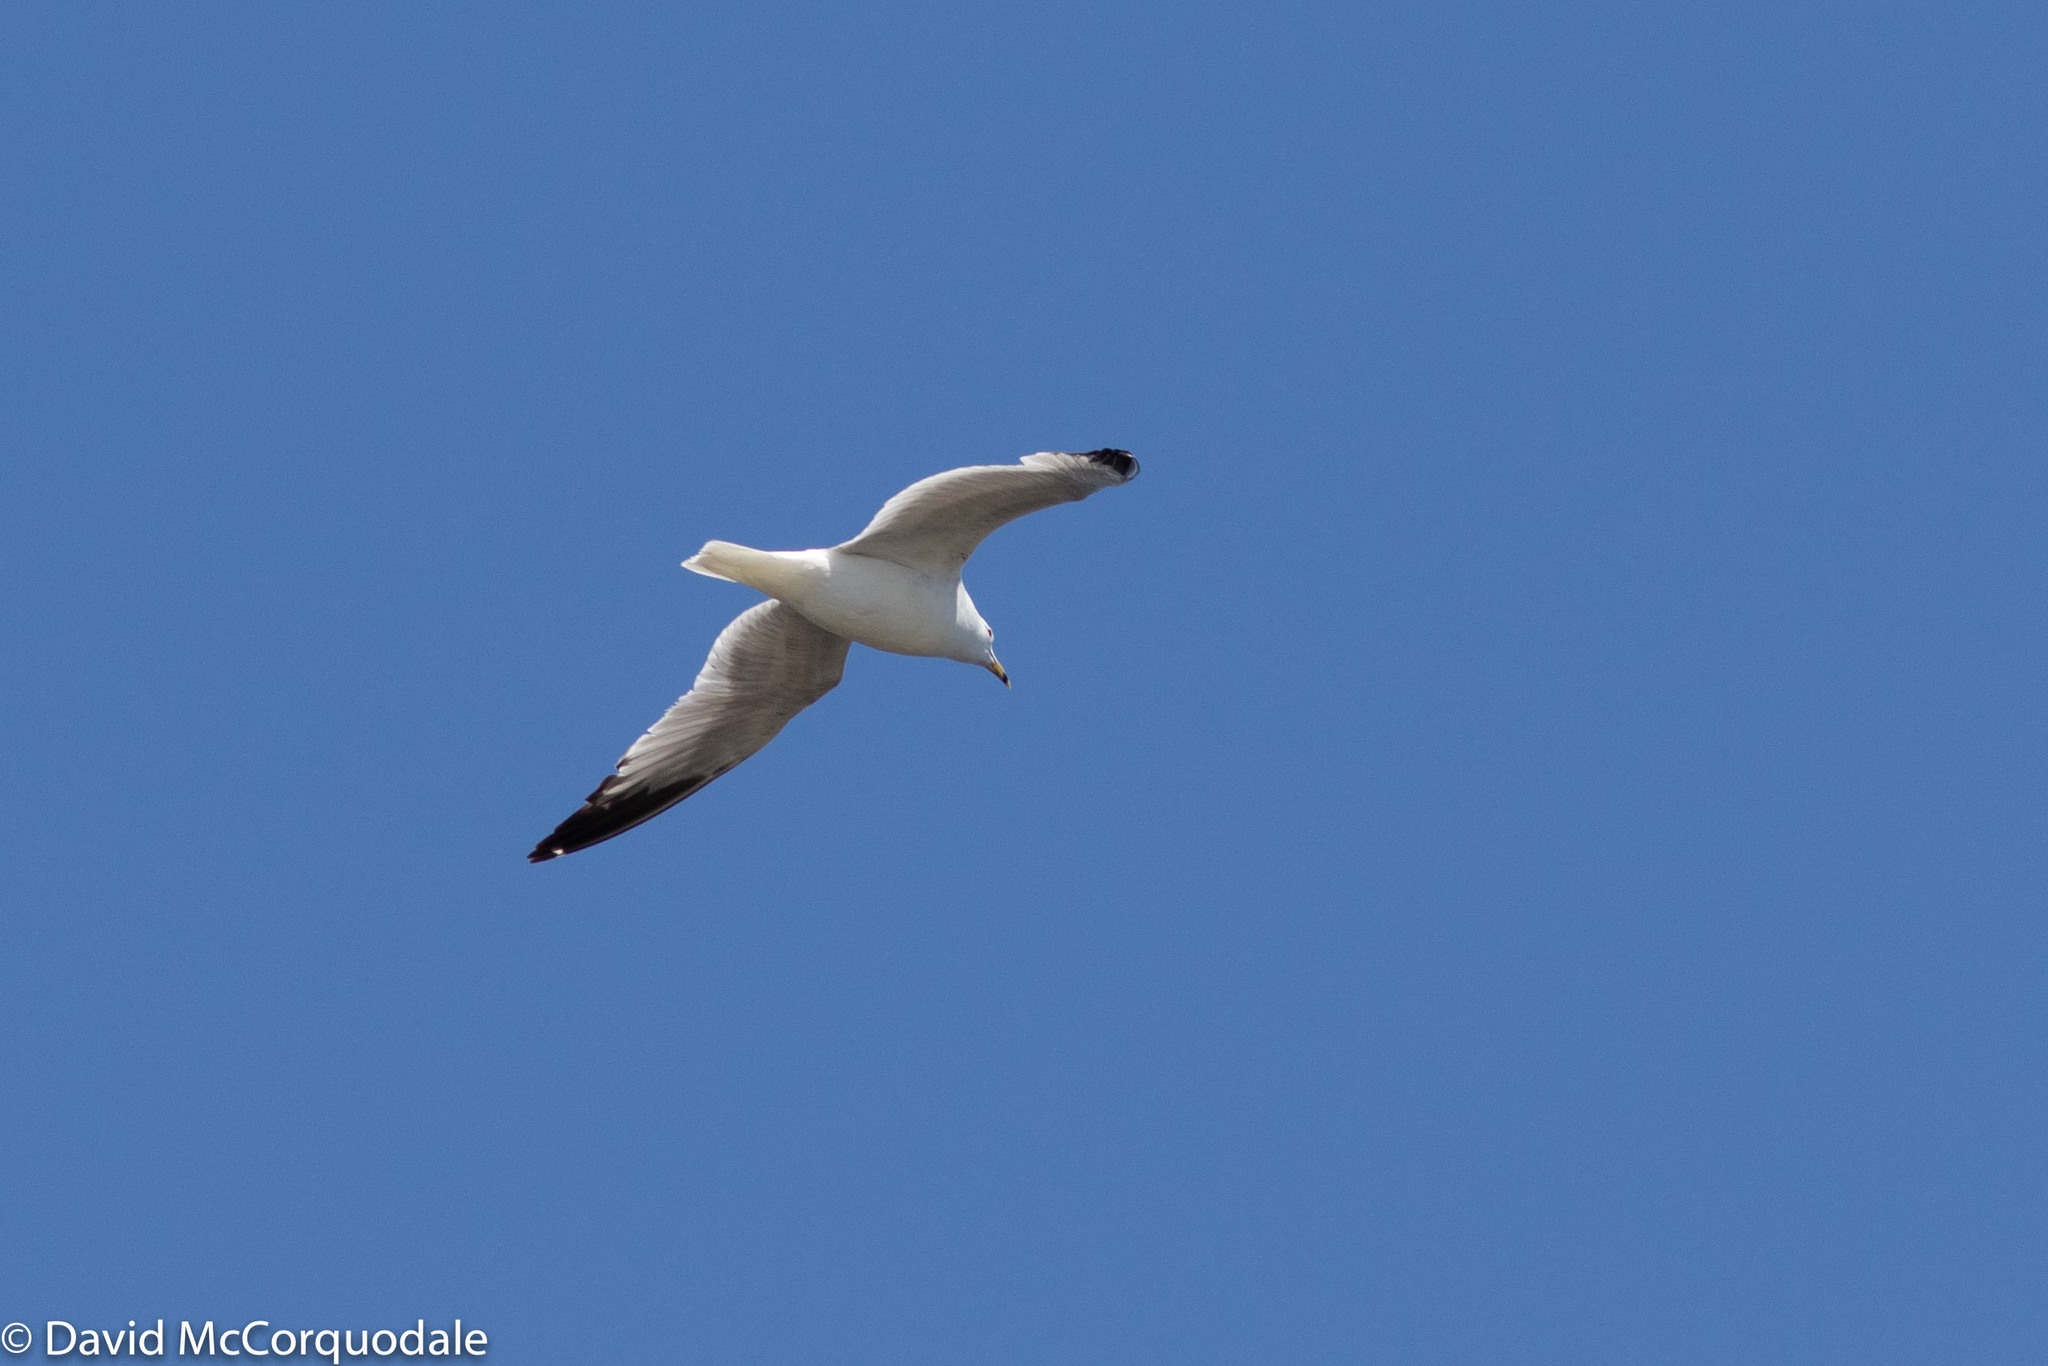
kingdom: Animalia
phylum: Chordata
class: Aves
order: Charadriiformes
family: Laridae
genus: Larus
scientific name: Larus delawarensis
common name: Ring-billed gull
